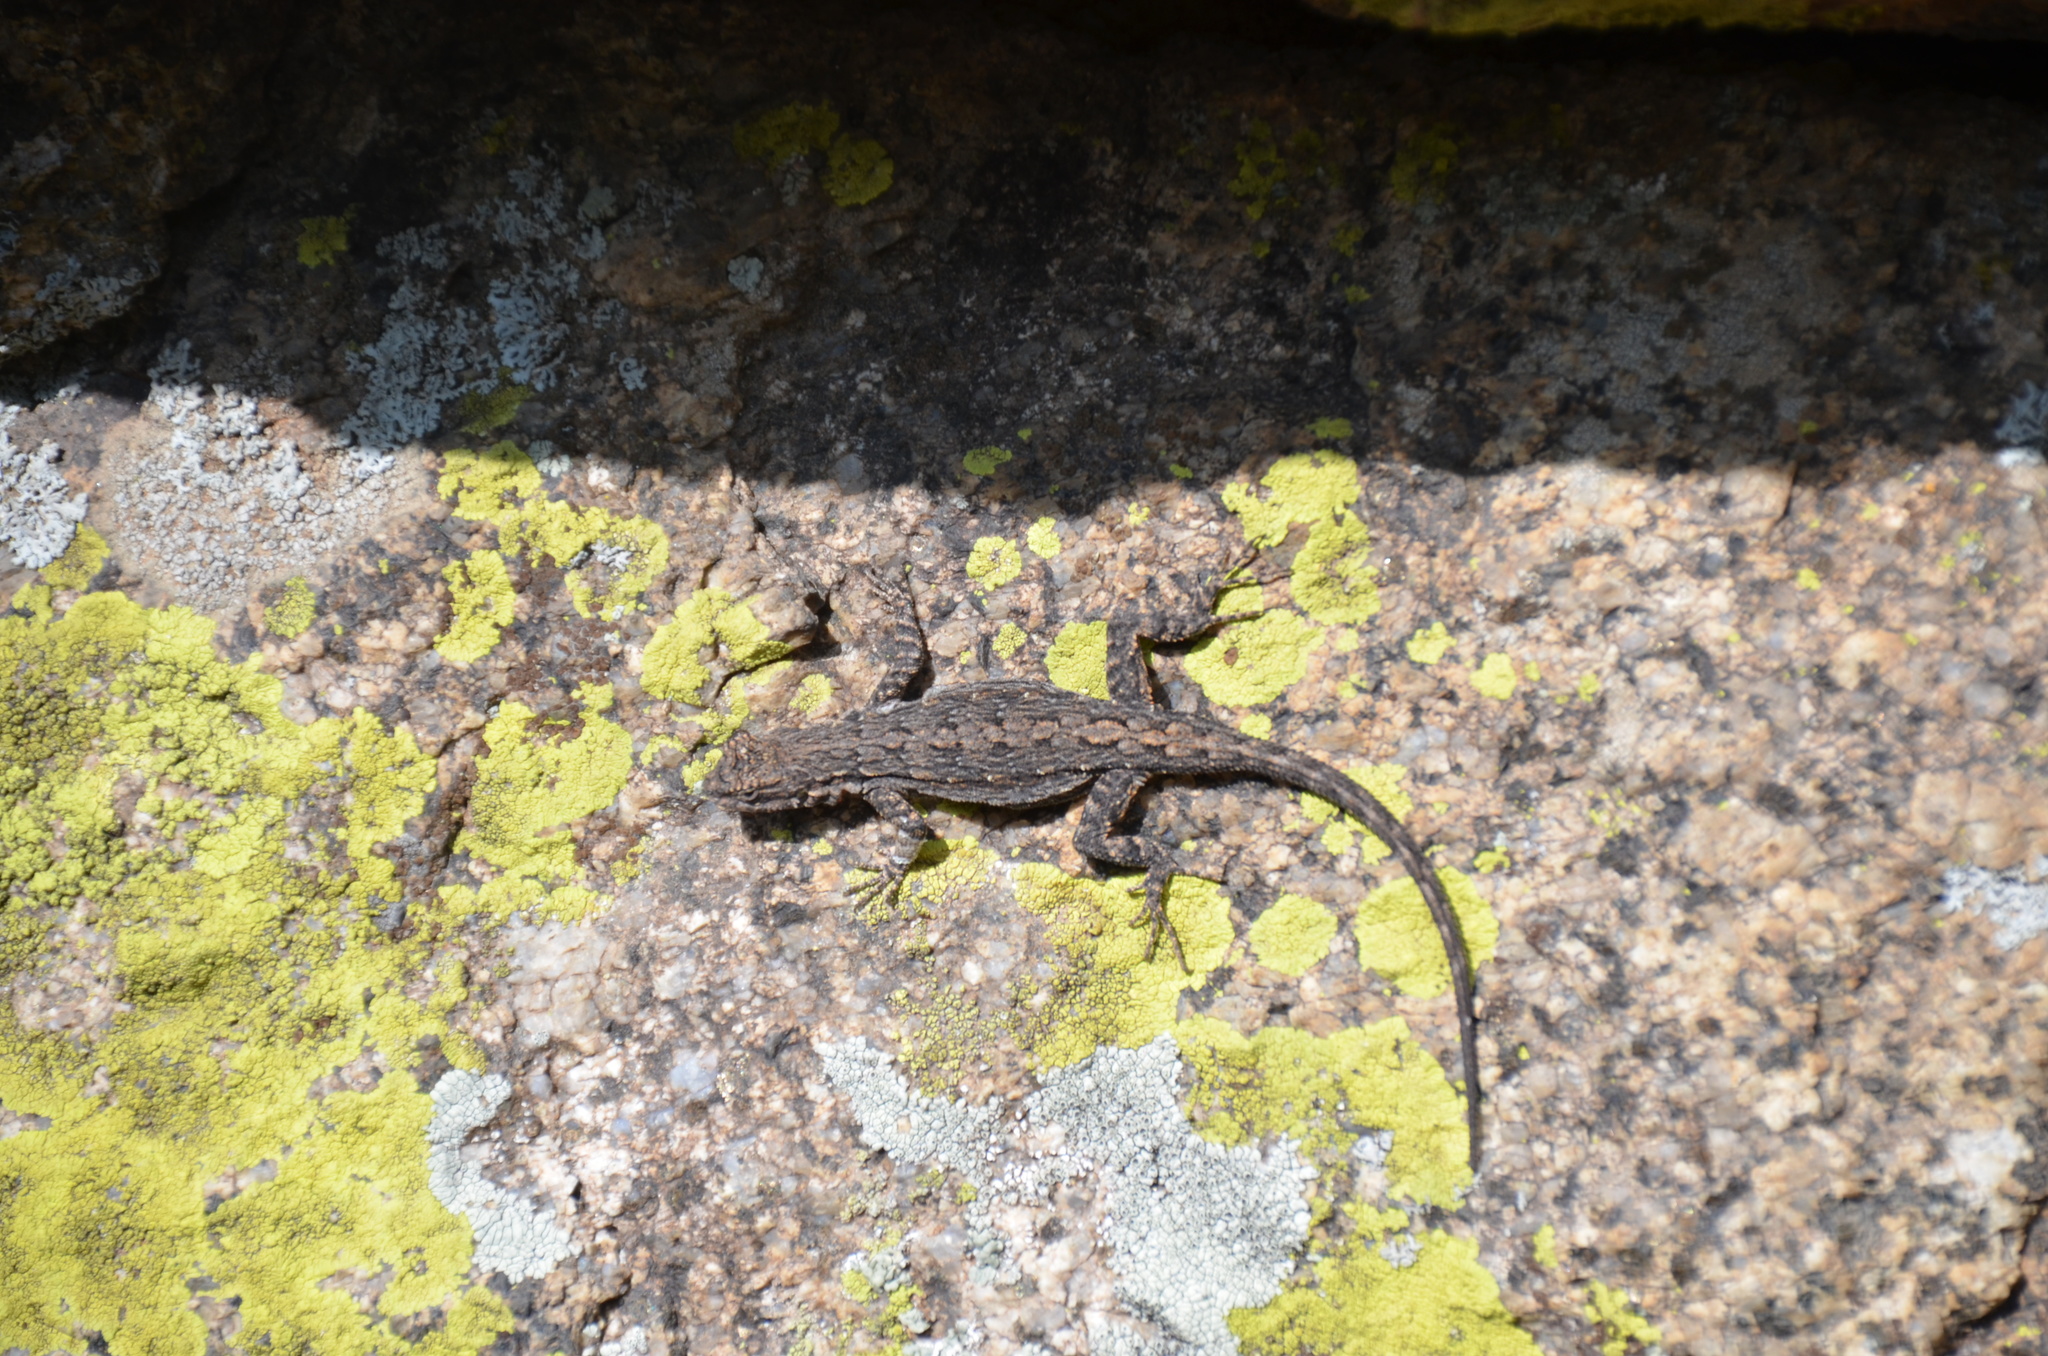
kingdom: Animalia
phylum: Chordata
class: Squamata
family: Phrynosomatidae
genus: Urosaurus
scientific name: Urosaurus ornatus
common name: Ornate tree lizard
